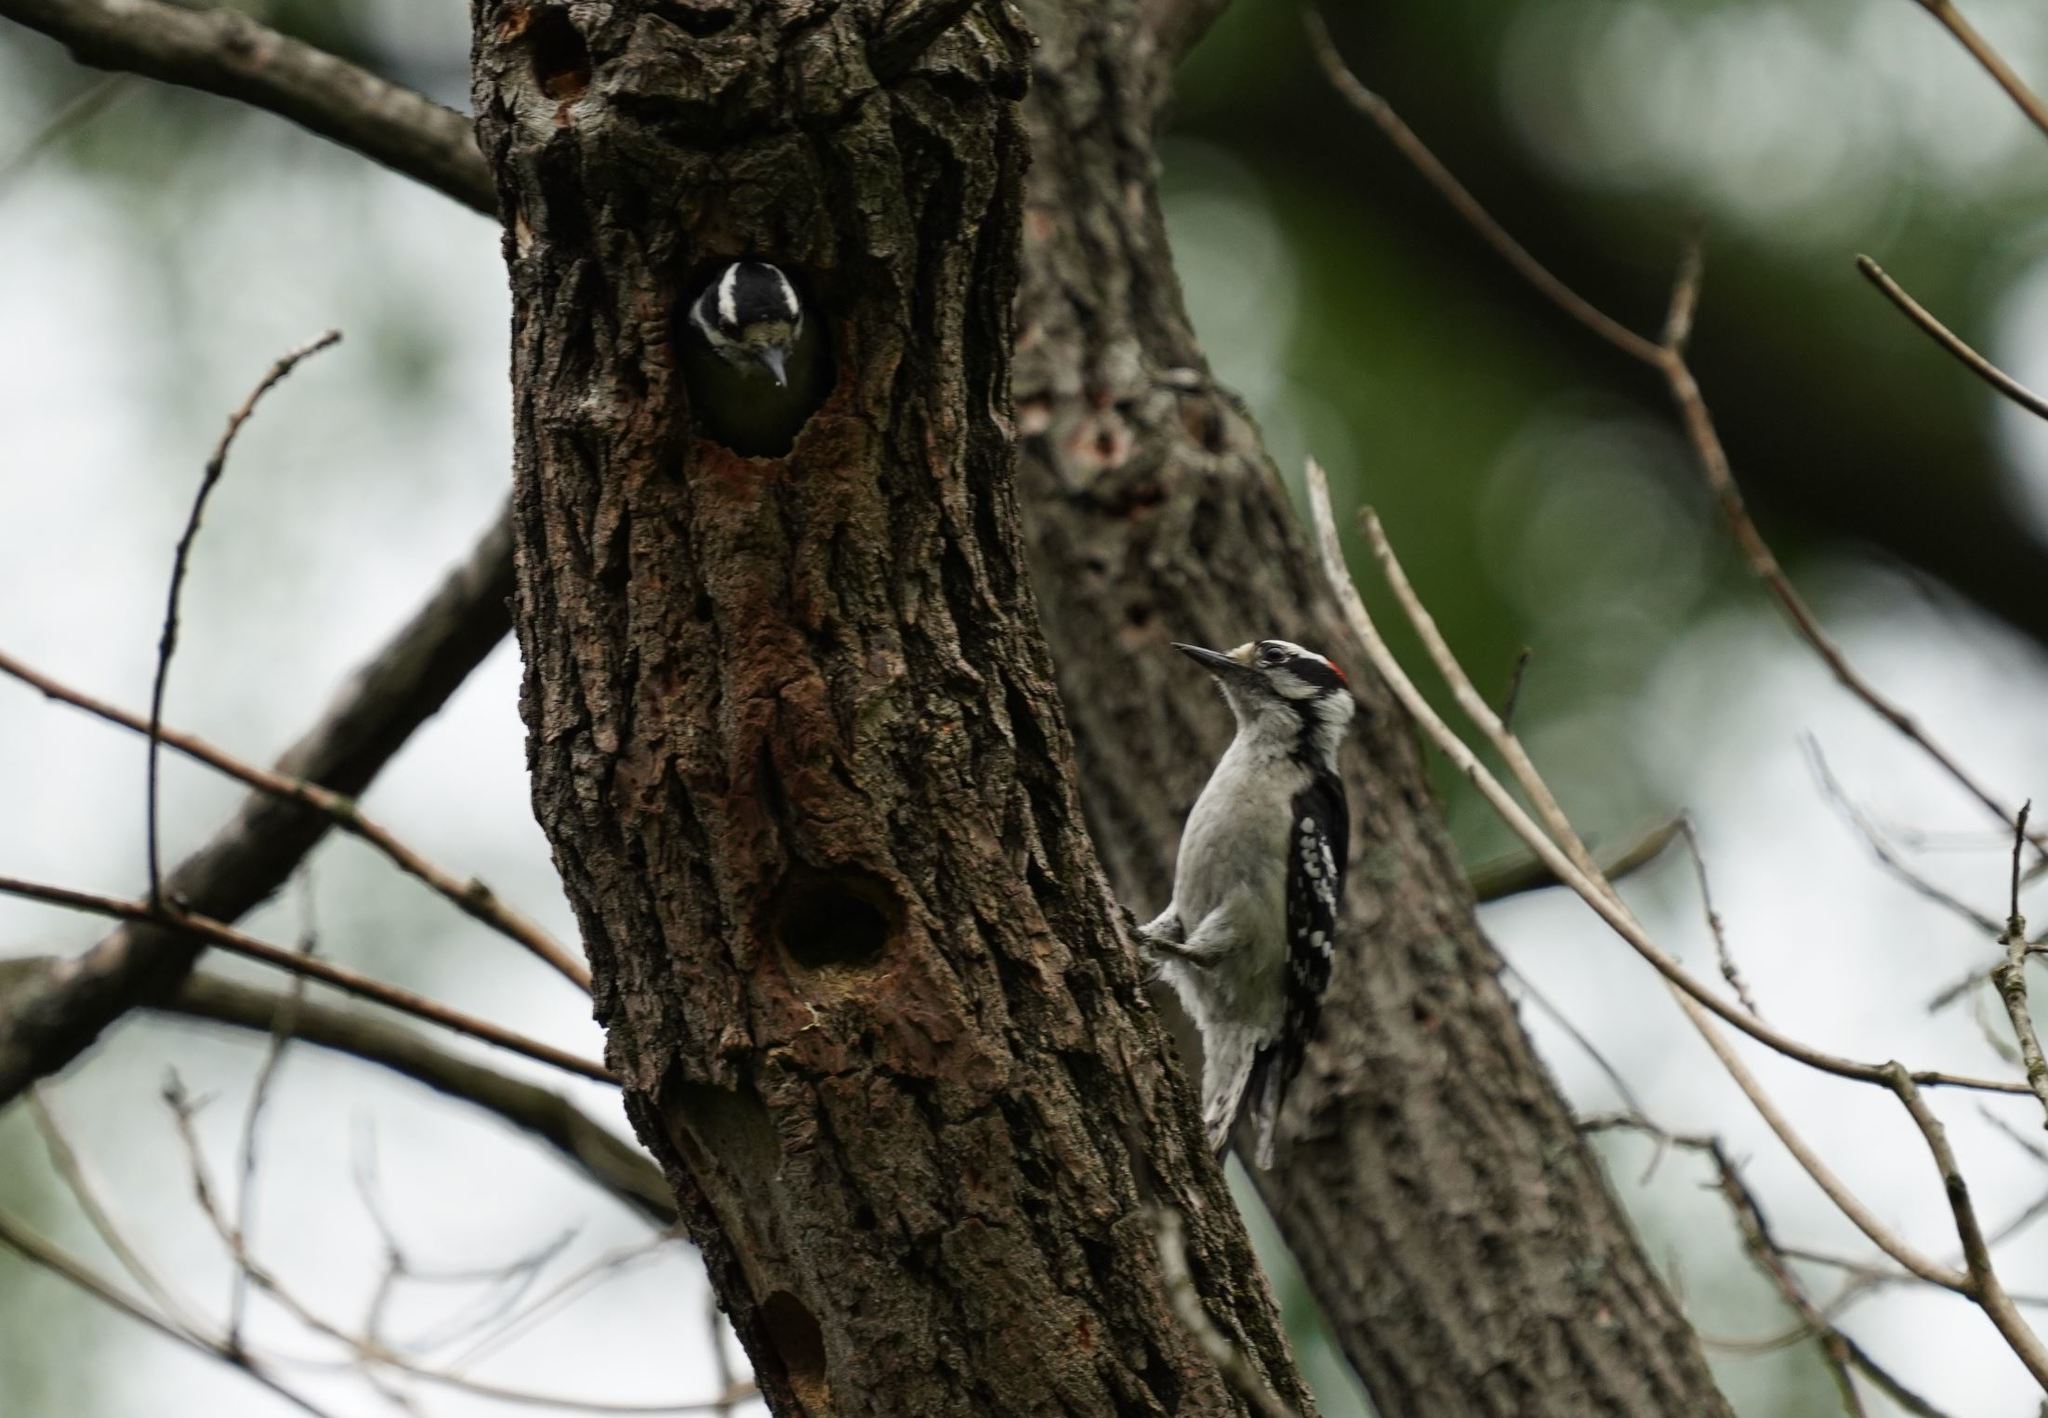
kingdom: Animalia
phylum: Chordata
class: Aves
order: Piciformes
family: Picidae
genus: Dryobates
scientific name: Dryobates pubescens
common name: Downy woodpecker
